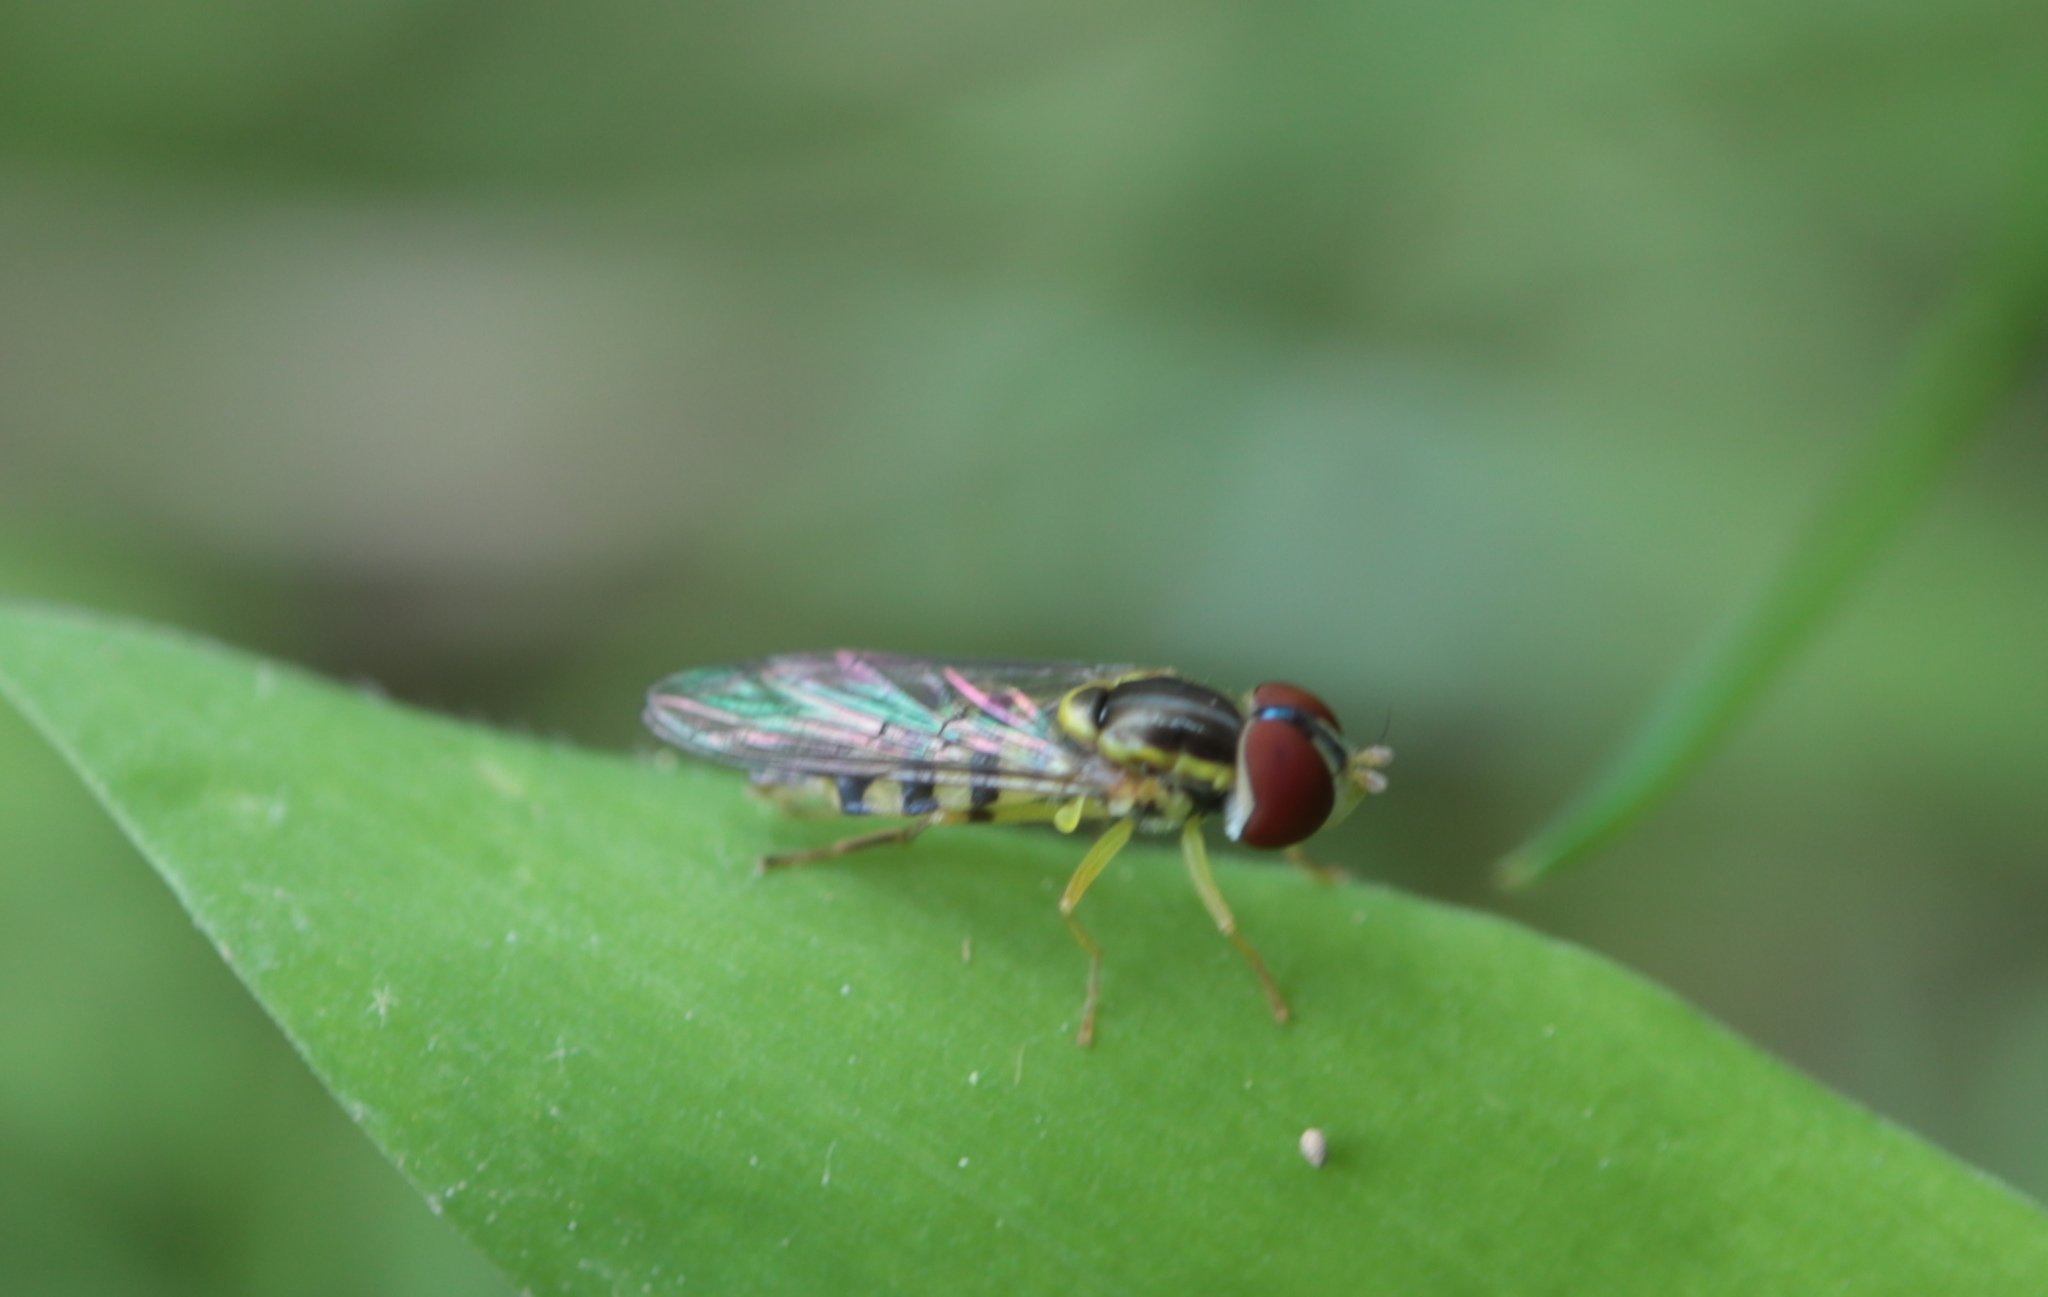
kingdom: Animalia
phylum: Arthropoda
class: Insecta
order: Diptera
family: Syrphidae
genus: Toxomerus
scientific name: Toxomerus geminatus
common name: Eastern calligrapher
